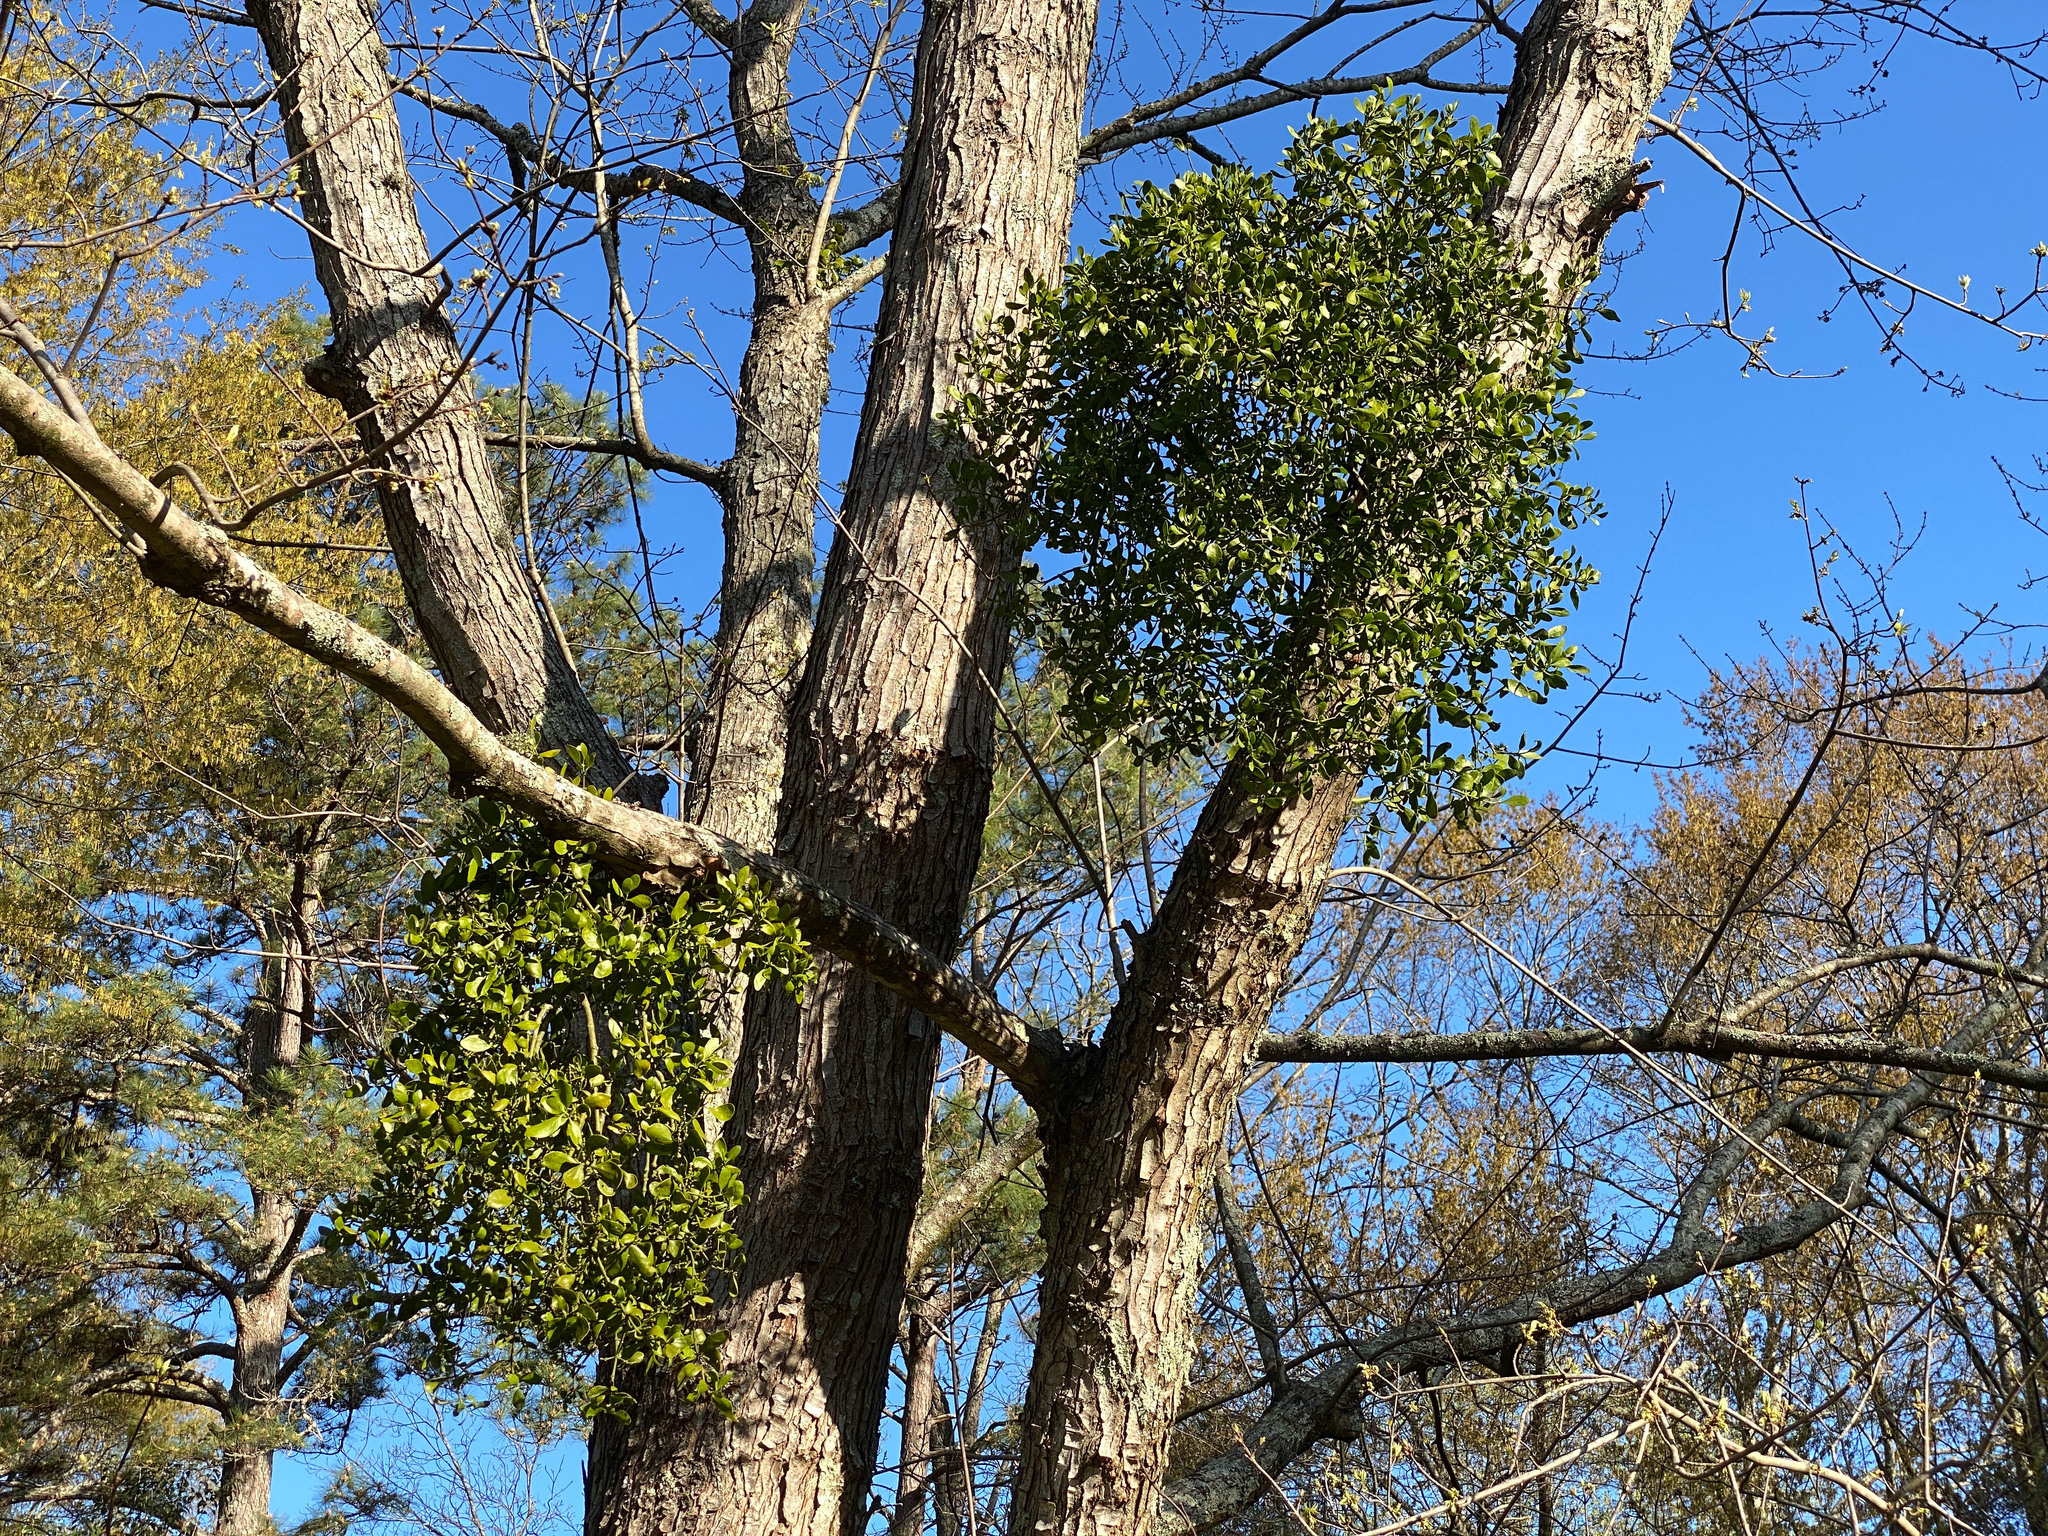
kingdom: Plantae
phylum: Tracheophyta
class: Magnoliopsida
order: Santalales
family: Viscaceae
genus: Phoradendron
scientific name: Phoradendron leucarpum
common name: Pacific mistletoe
